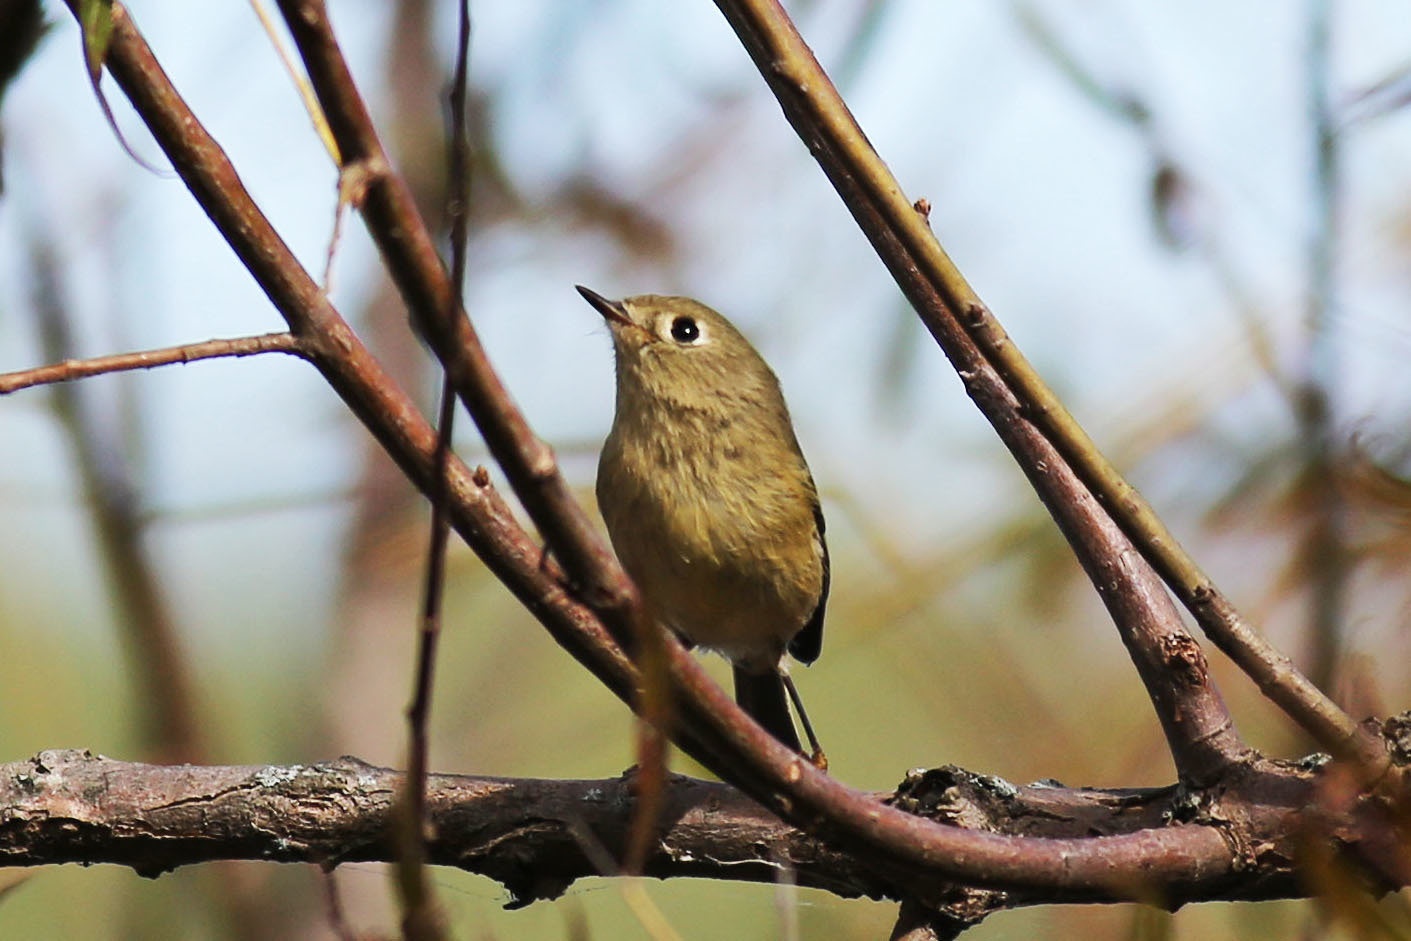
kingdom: Animalia
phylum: Chordata
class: Aves
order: Passeriformes
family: Regulidae
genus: Regulus
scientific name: Regulus calendula
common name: Ruby-crowned kinglet
